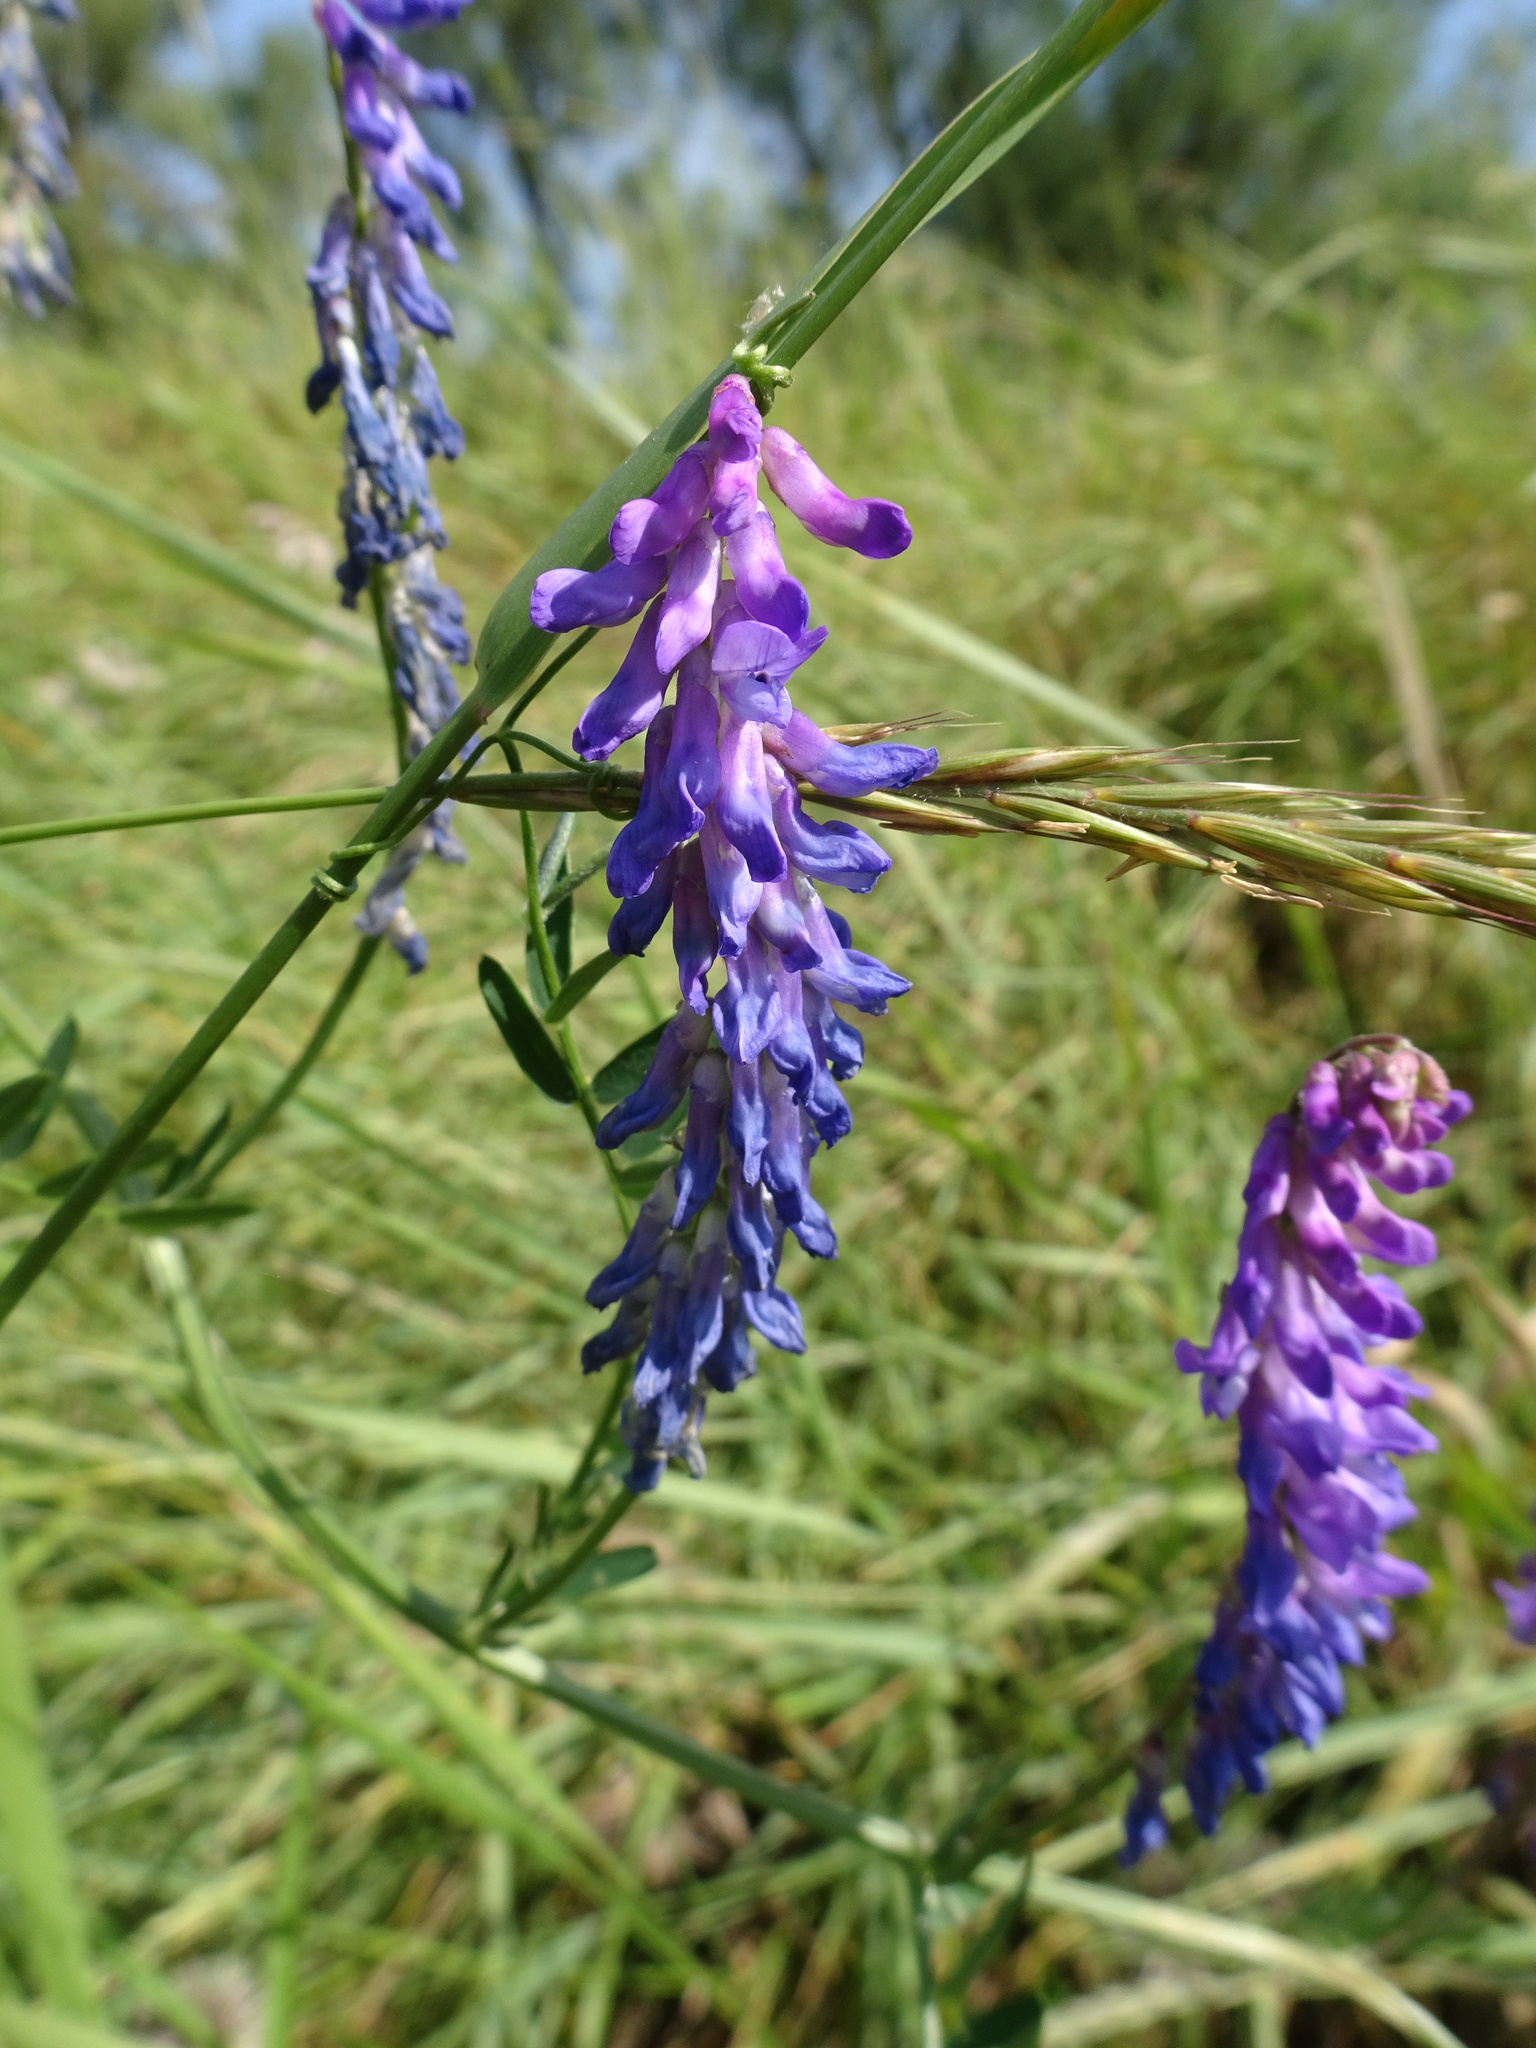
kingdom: Plantae
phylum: Tracheophyta
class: Magnoliopsida
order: Fabales
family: Fabaceae
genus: Vicia
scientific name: Vicia cracca
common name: Bird vetch
